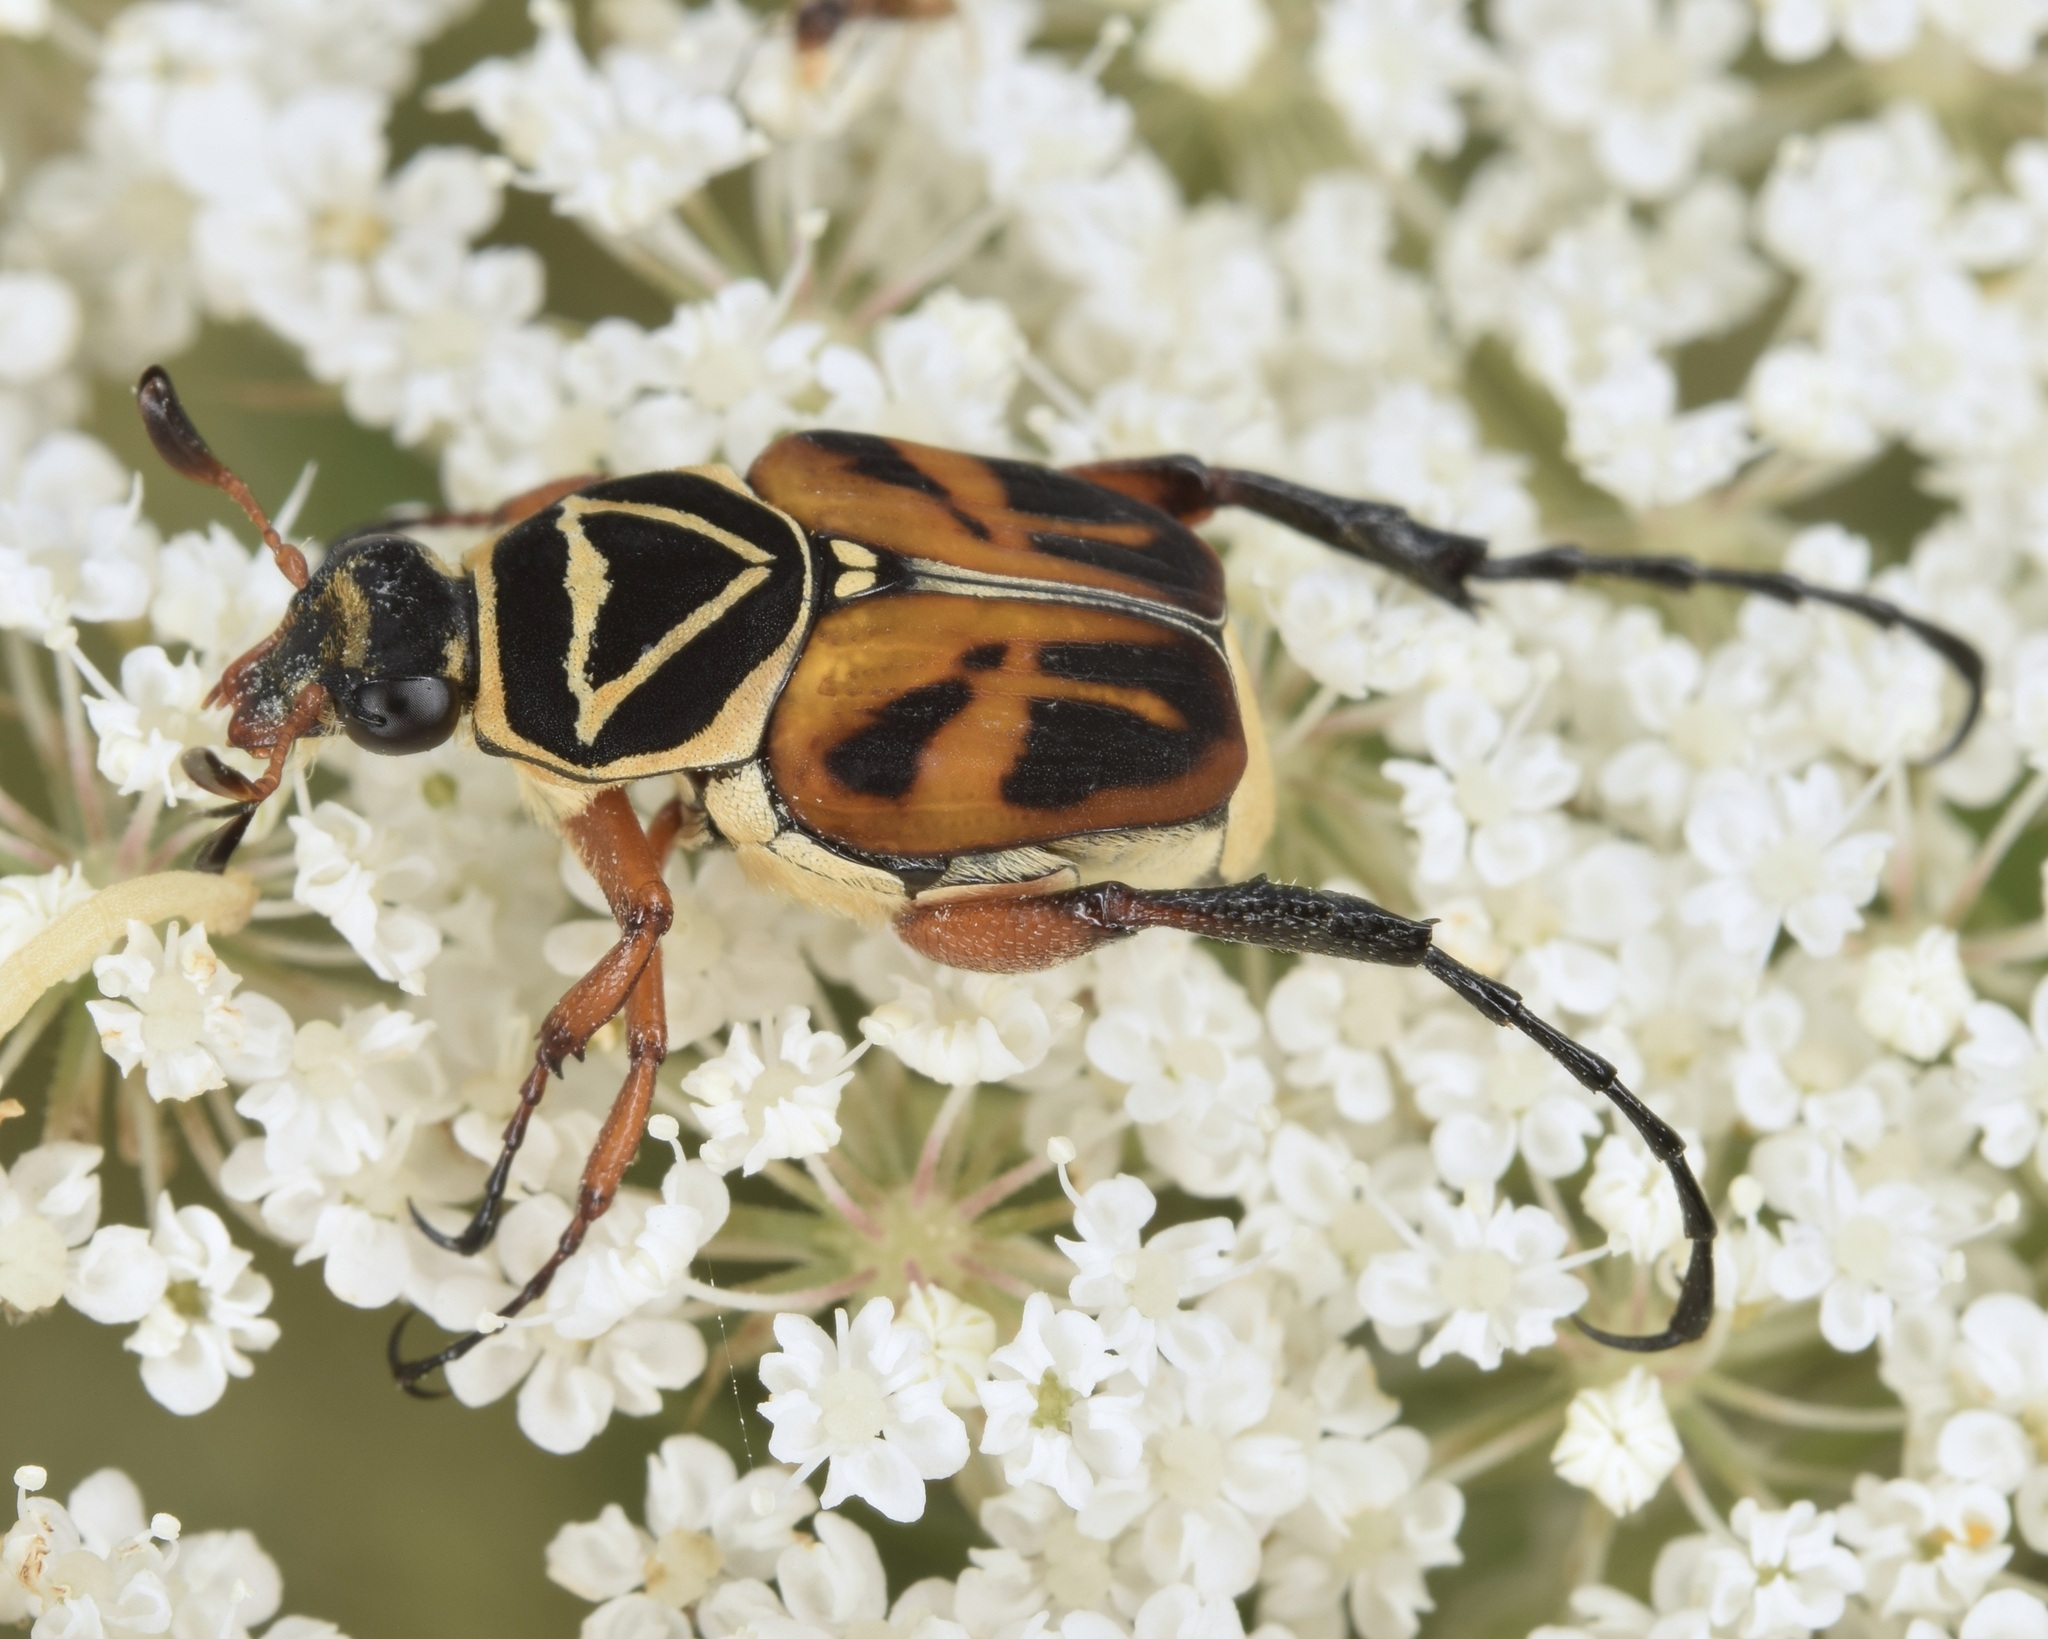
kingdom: Animalia
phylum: Arthropoda
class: Insecta
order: Coleoptera
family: Scarabaeidae
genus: Trigonopeltastes
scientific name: Trigonopeltastes delta
